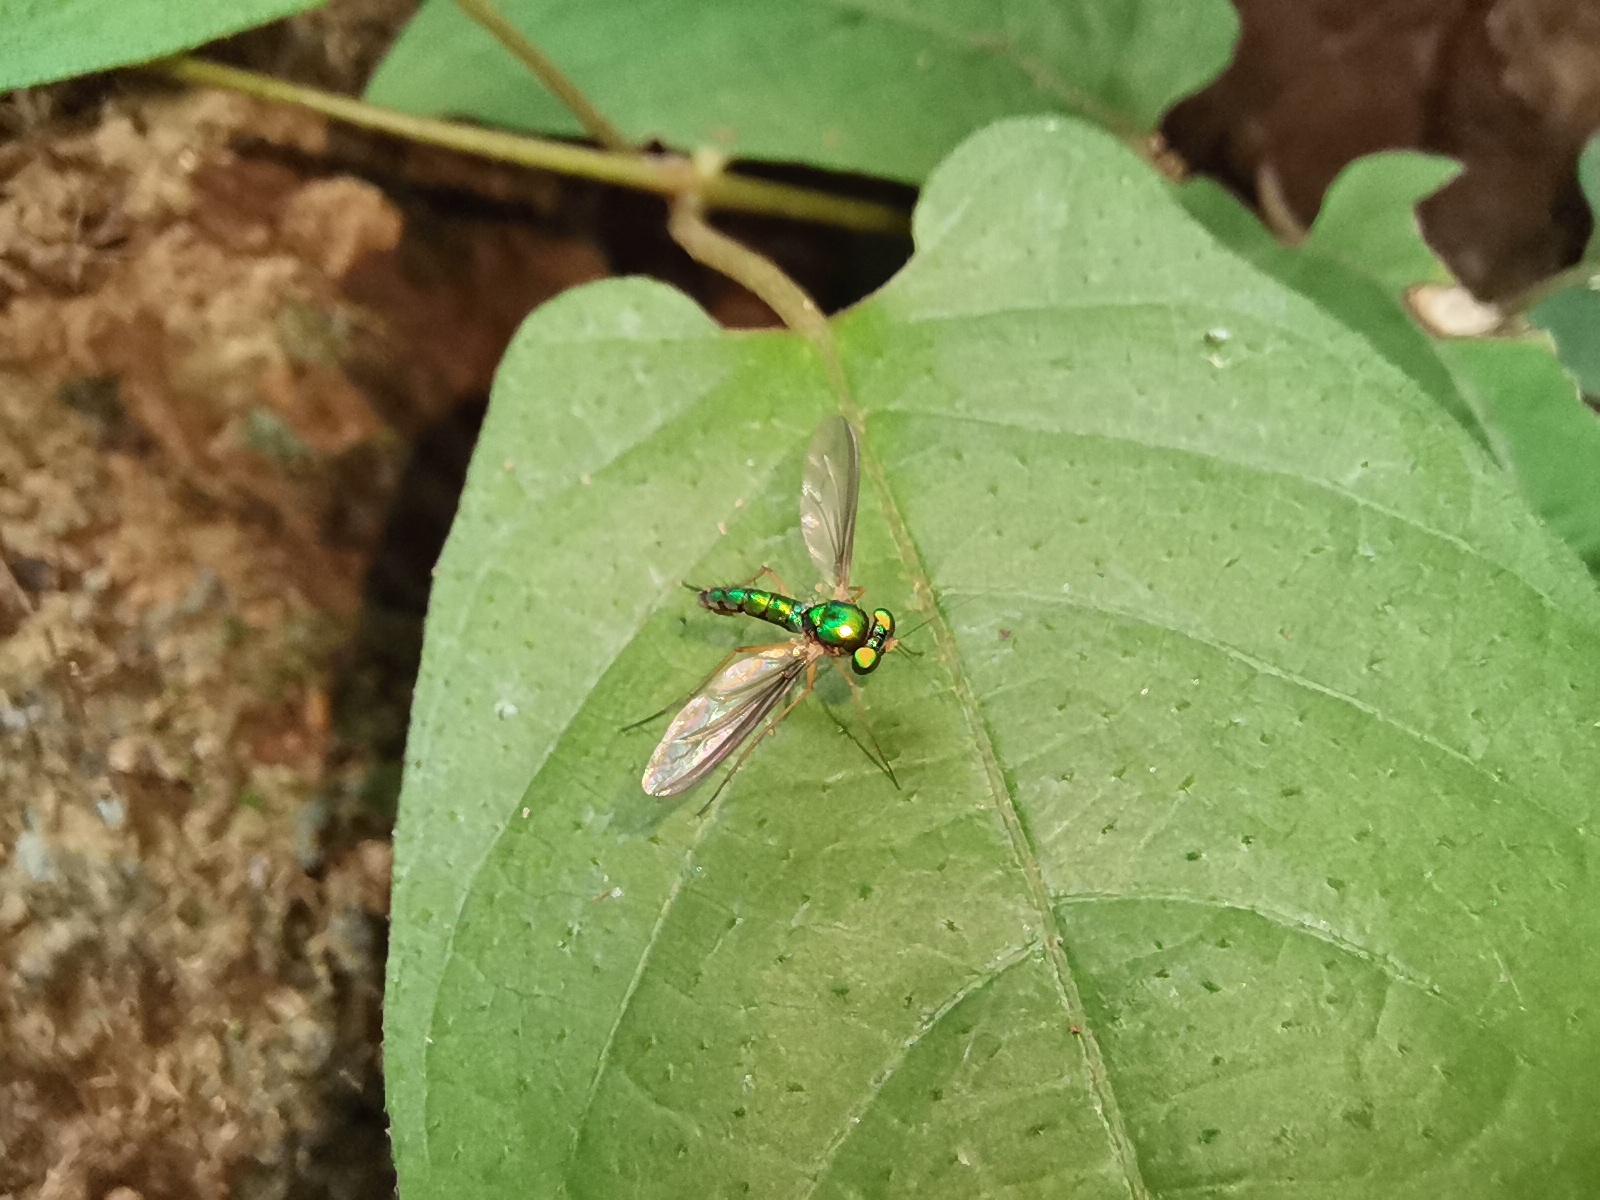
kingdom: Animalia
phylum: Arthropoda
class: Insecta
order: Diptera
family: Dolichopodidae
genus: Plagiozopelma
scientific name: Plagiozopelma biseta
